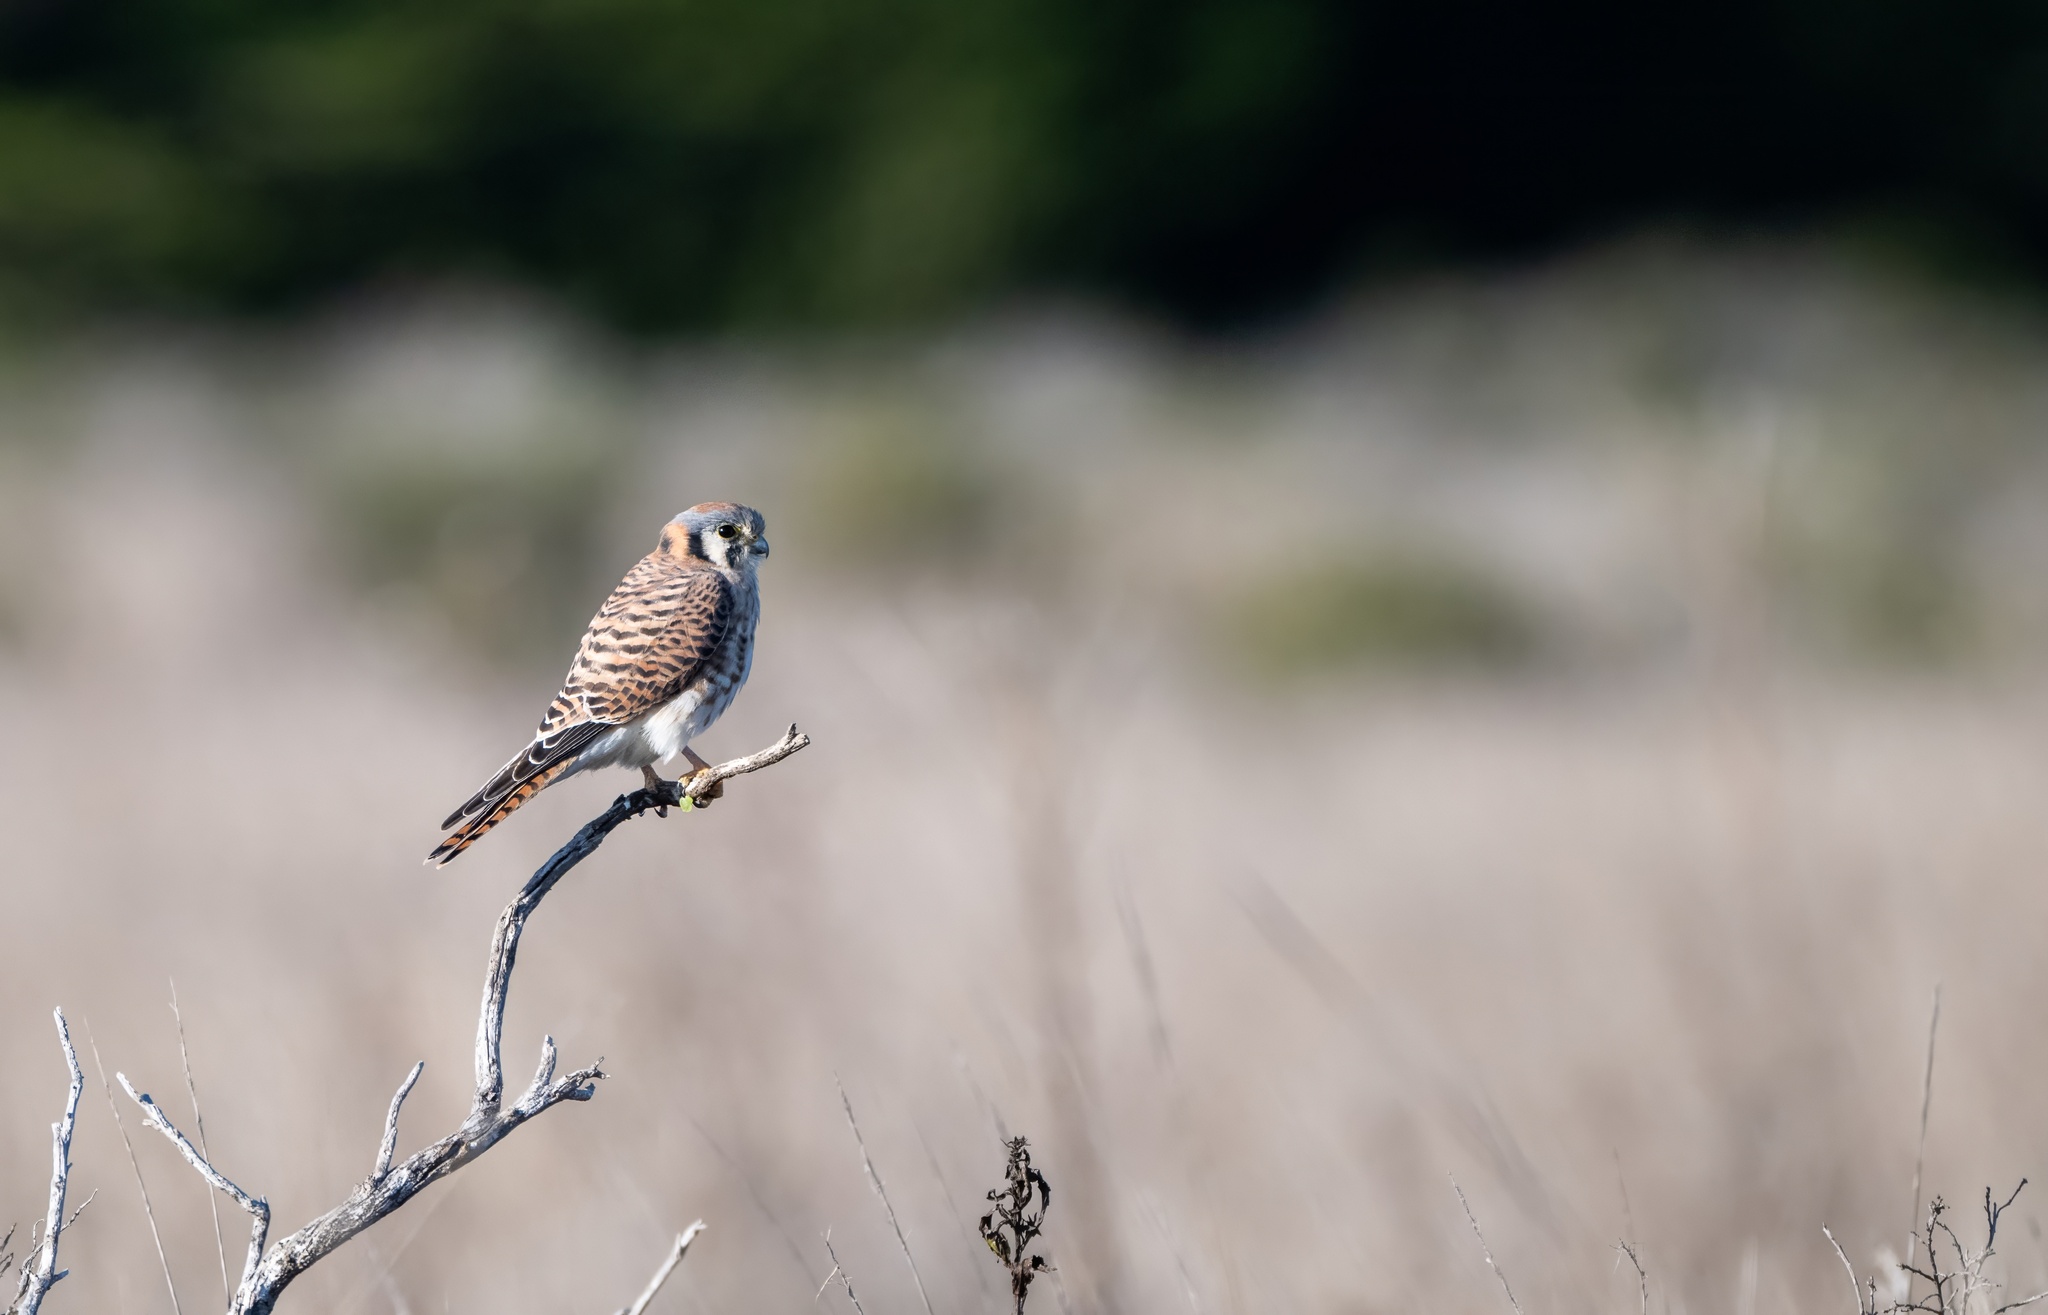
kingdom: Animalia
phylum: Chordata
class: Aves
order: Falconiformes
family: Falconidae
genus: Falco
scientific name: Falco sparverius
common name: American kestrel
